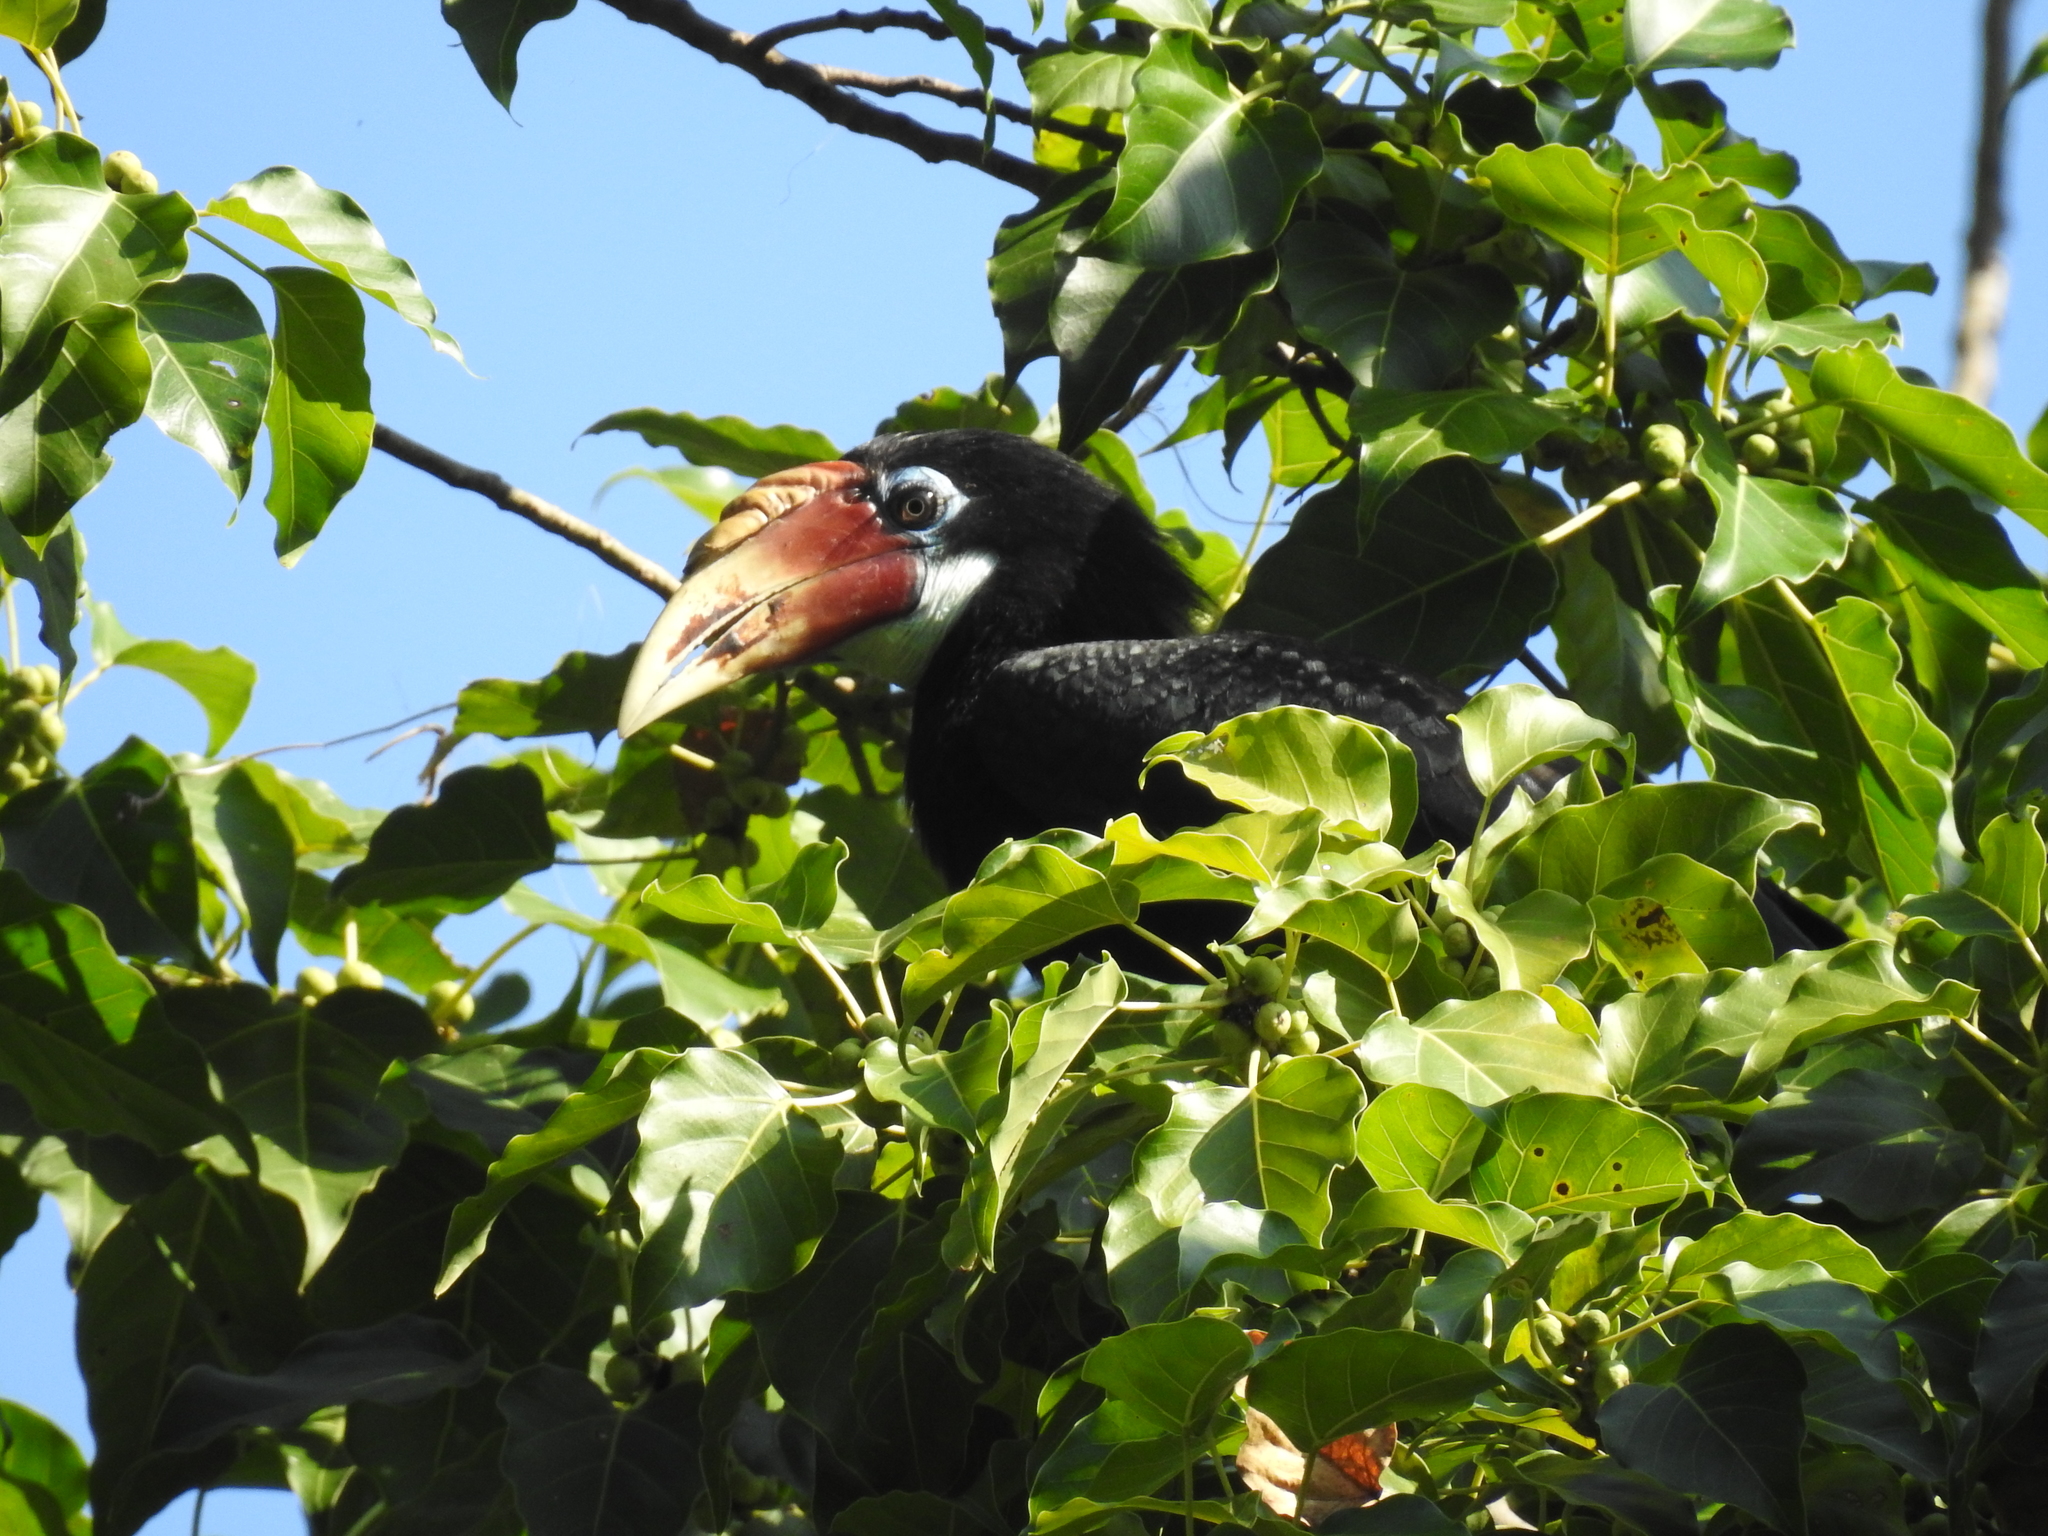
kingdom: Animalia
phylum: Chordata
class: Aves
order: Bucerotiformes
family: Bucerotidae
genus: Rhyticeros
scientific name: Rhyticeros narcondami
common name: Narcondam hornbill
